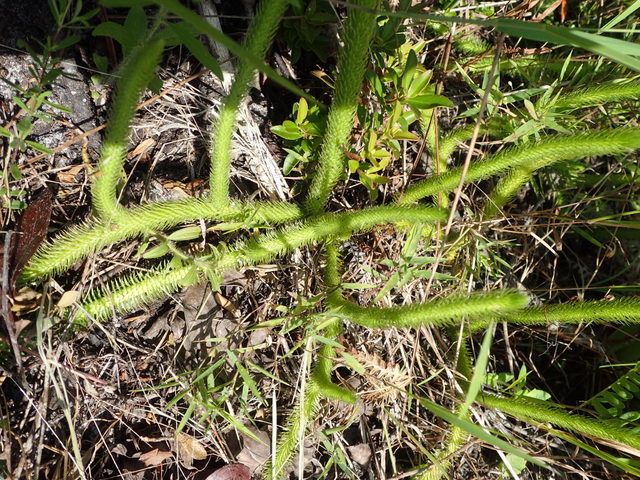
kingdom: Plantae
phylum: Tracheophyta
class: Lycopodiopsida
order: Lycopodiales
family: Lycopodiaceae
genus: Lycopodiella
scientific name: Lycopodiella alopecuroides
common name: Foxtail clubmoss
